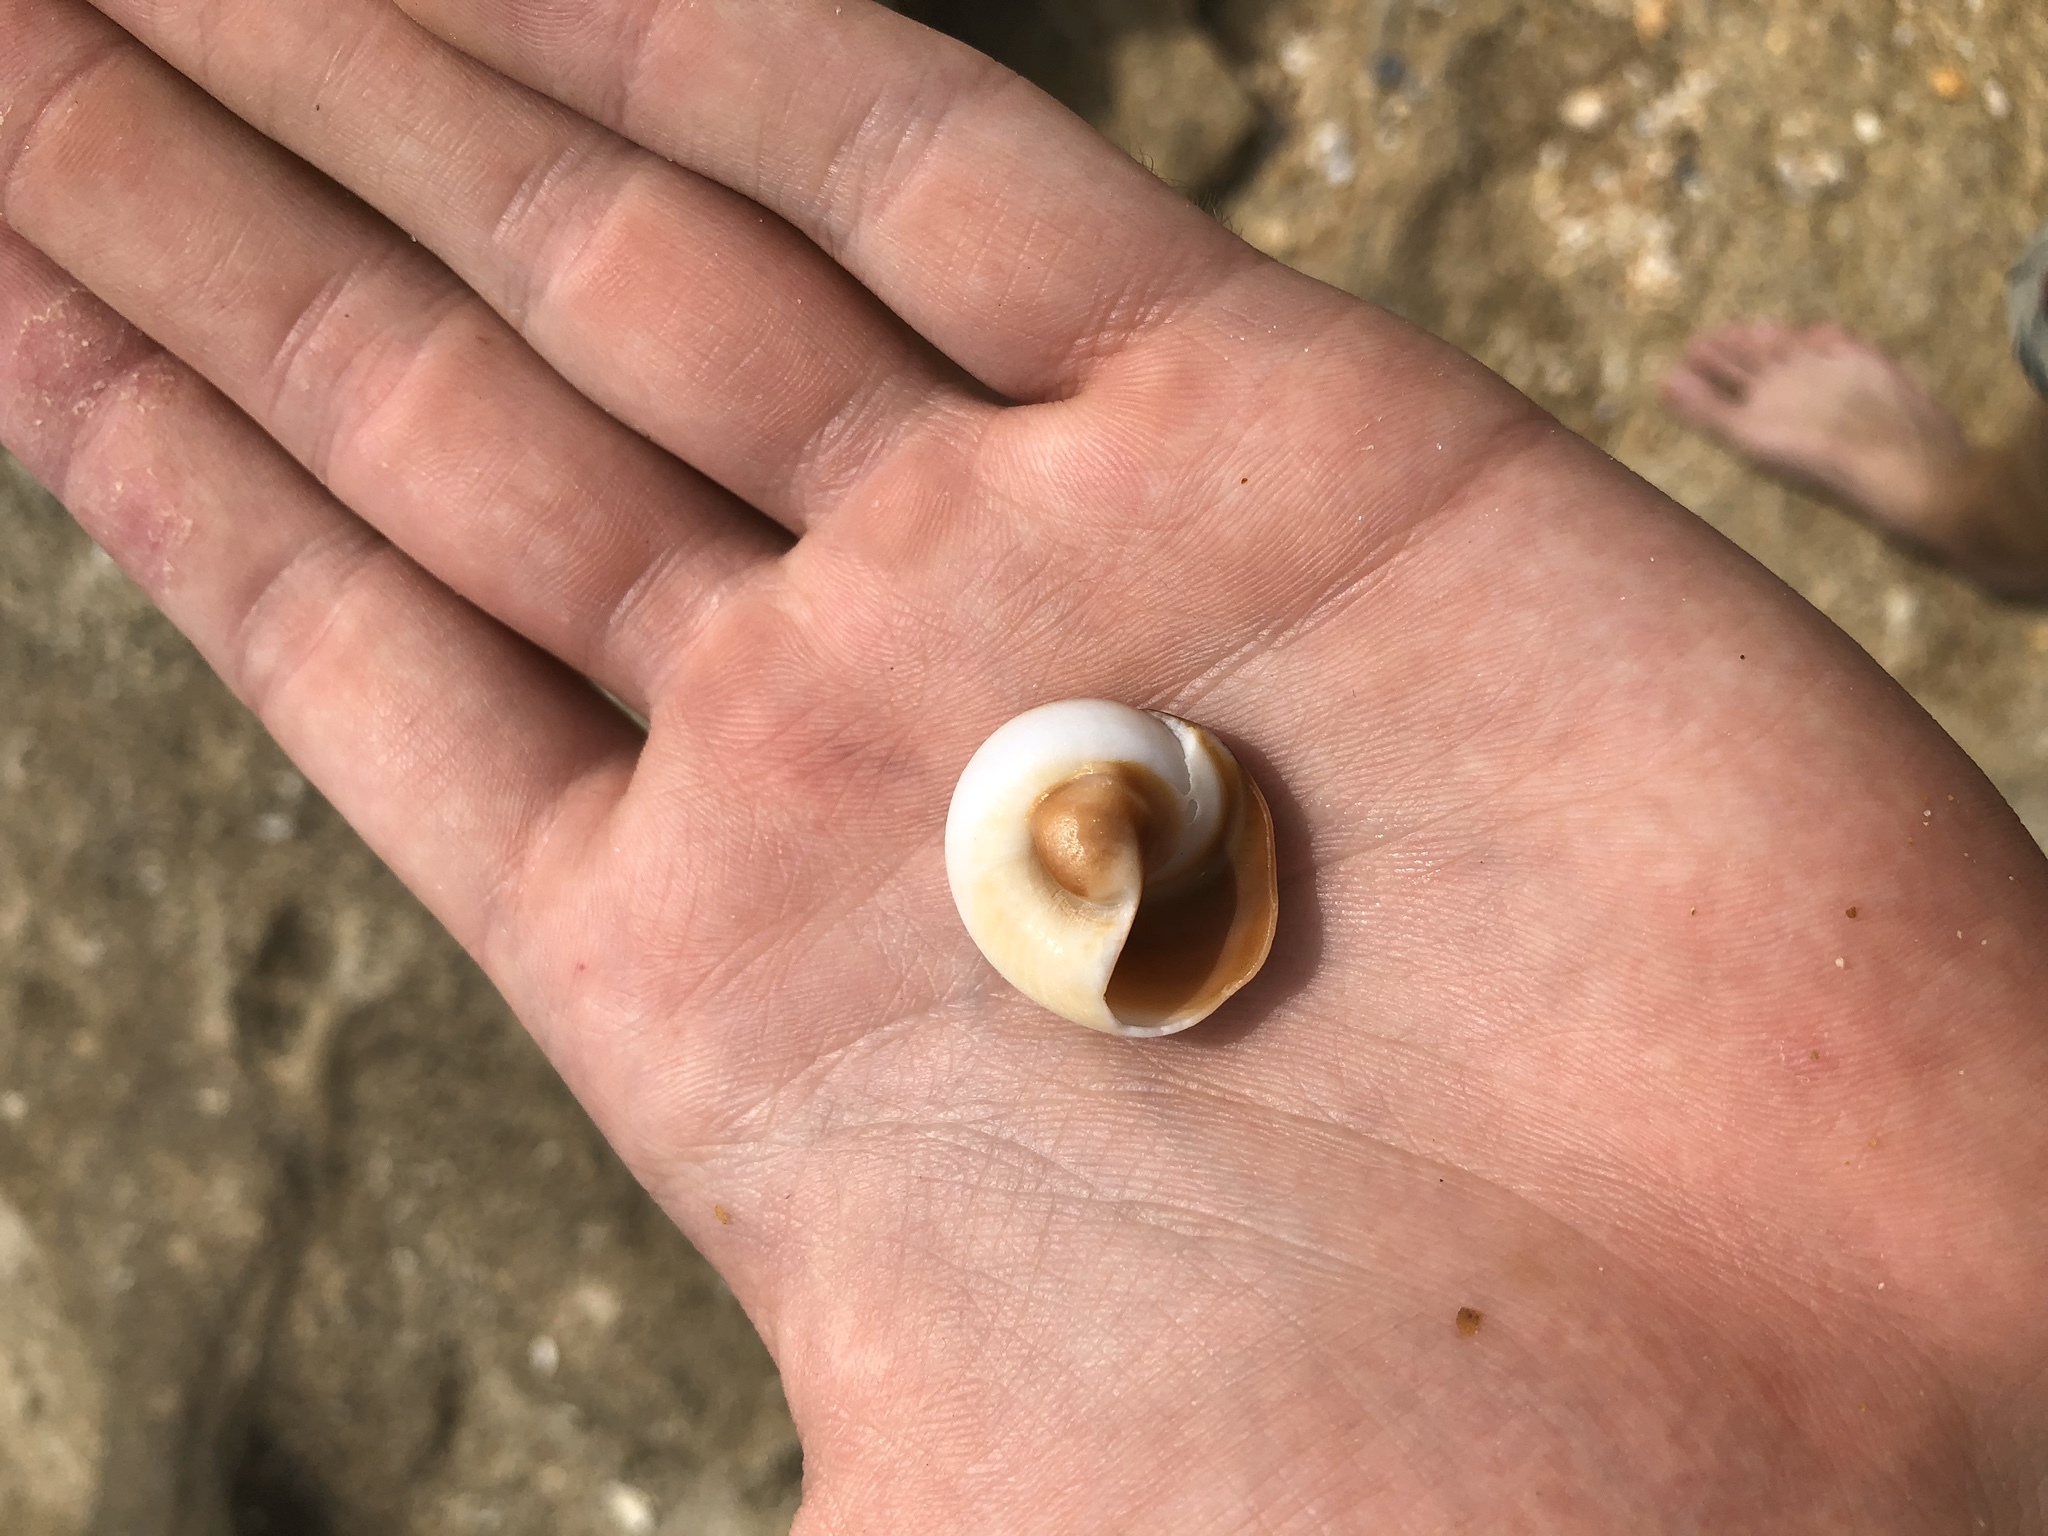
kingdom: Animalia
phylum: Mollusca
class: Gastropoda
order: Littorinimorpha
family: Naticidae
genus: Neverita
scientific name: Neverita duplicata
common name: Lobed moonsnail
